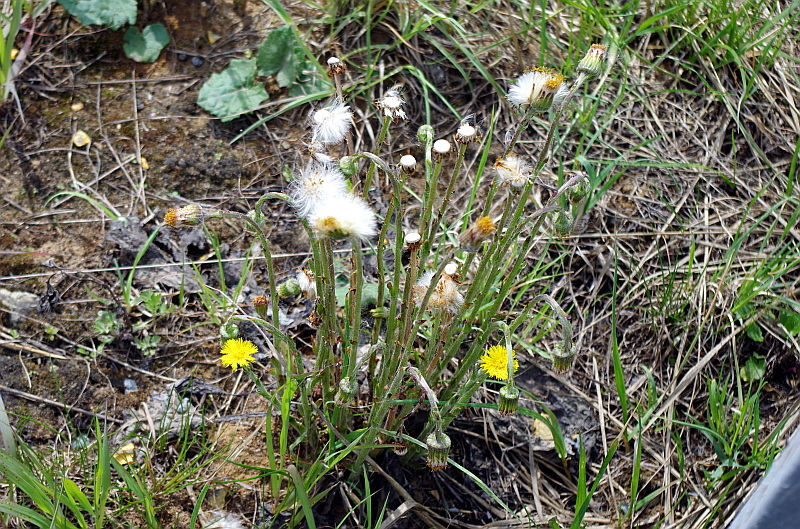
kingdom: Plantae
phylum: Tracheophyta
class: Magnoliopsida
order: Asterales
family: Asteraceae
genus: Tussilago
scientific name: Tussilago farfara
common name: Coltsfoot
